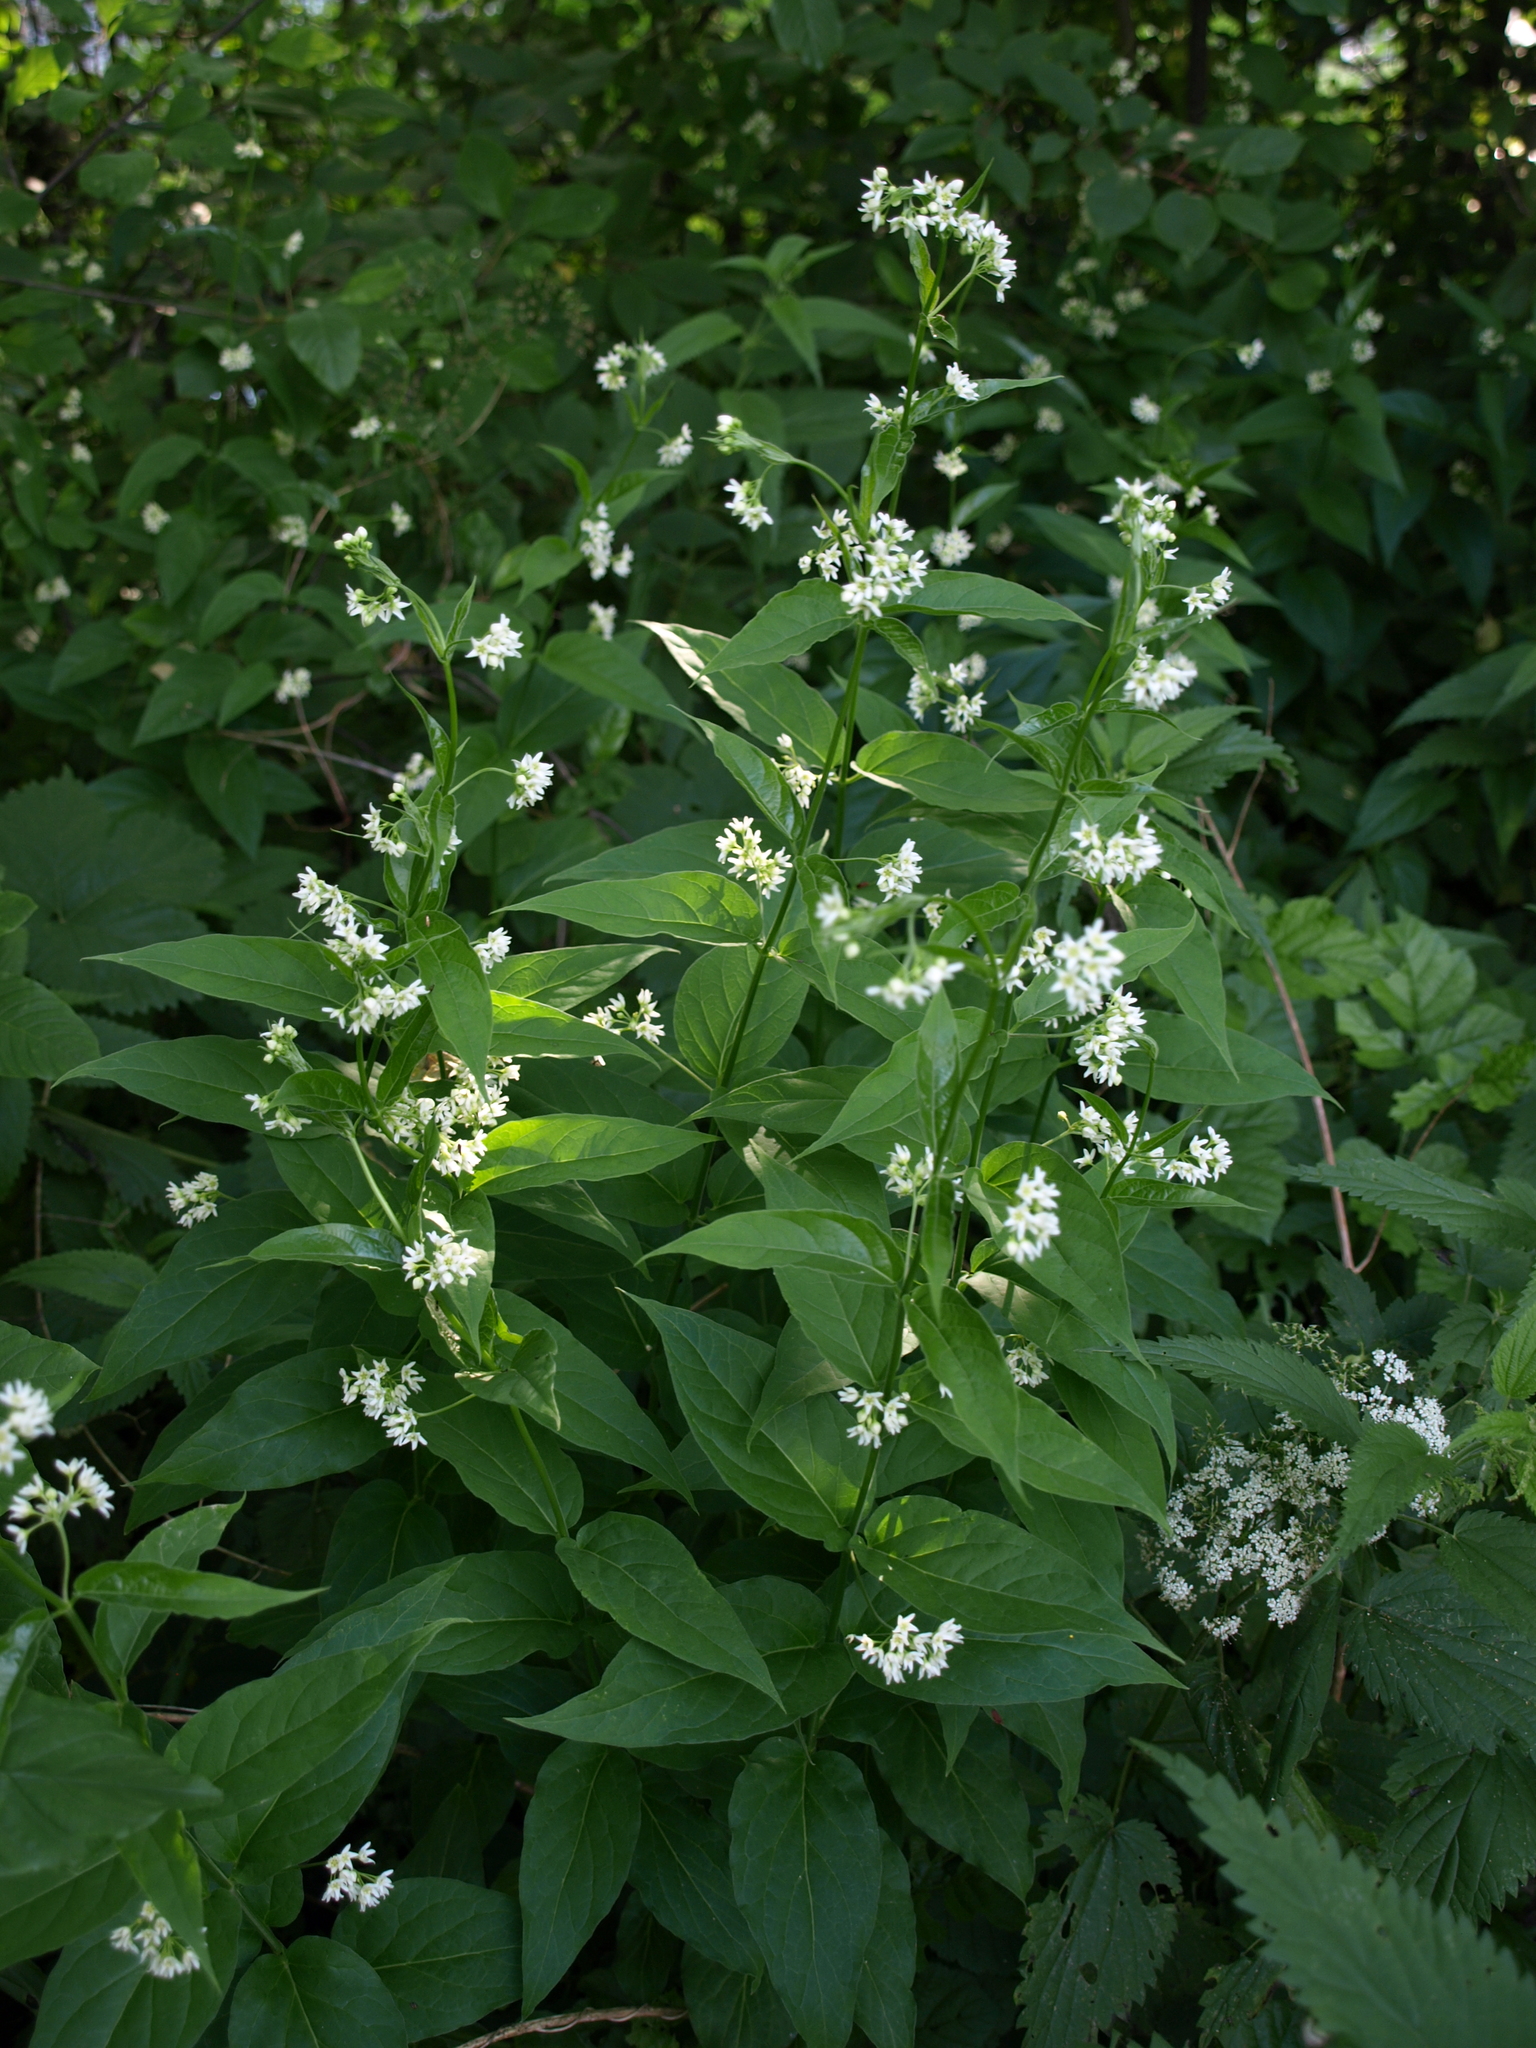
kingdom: Plantae
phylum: Tracheophyta
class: Magnoliopsida
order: Gentianales
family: Apocynaceae
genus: Vincetoxicum
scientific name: Vincetoxicum hirundinaria
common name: White swallowwort
